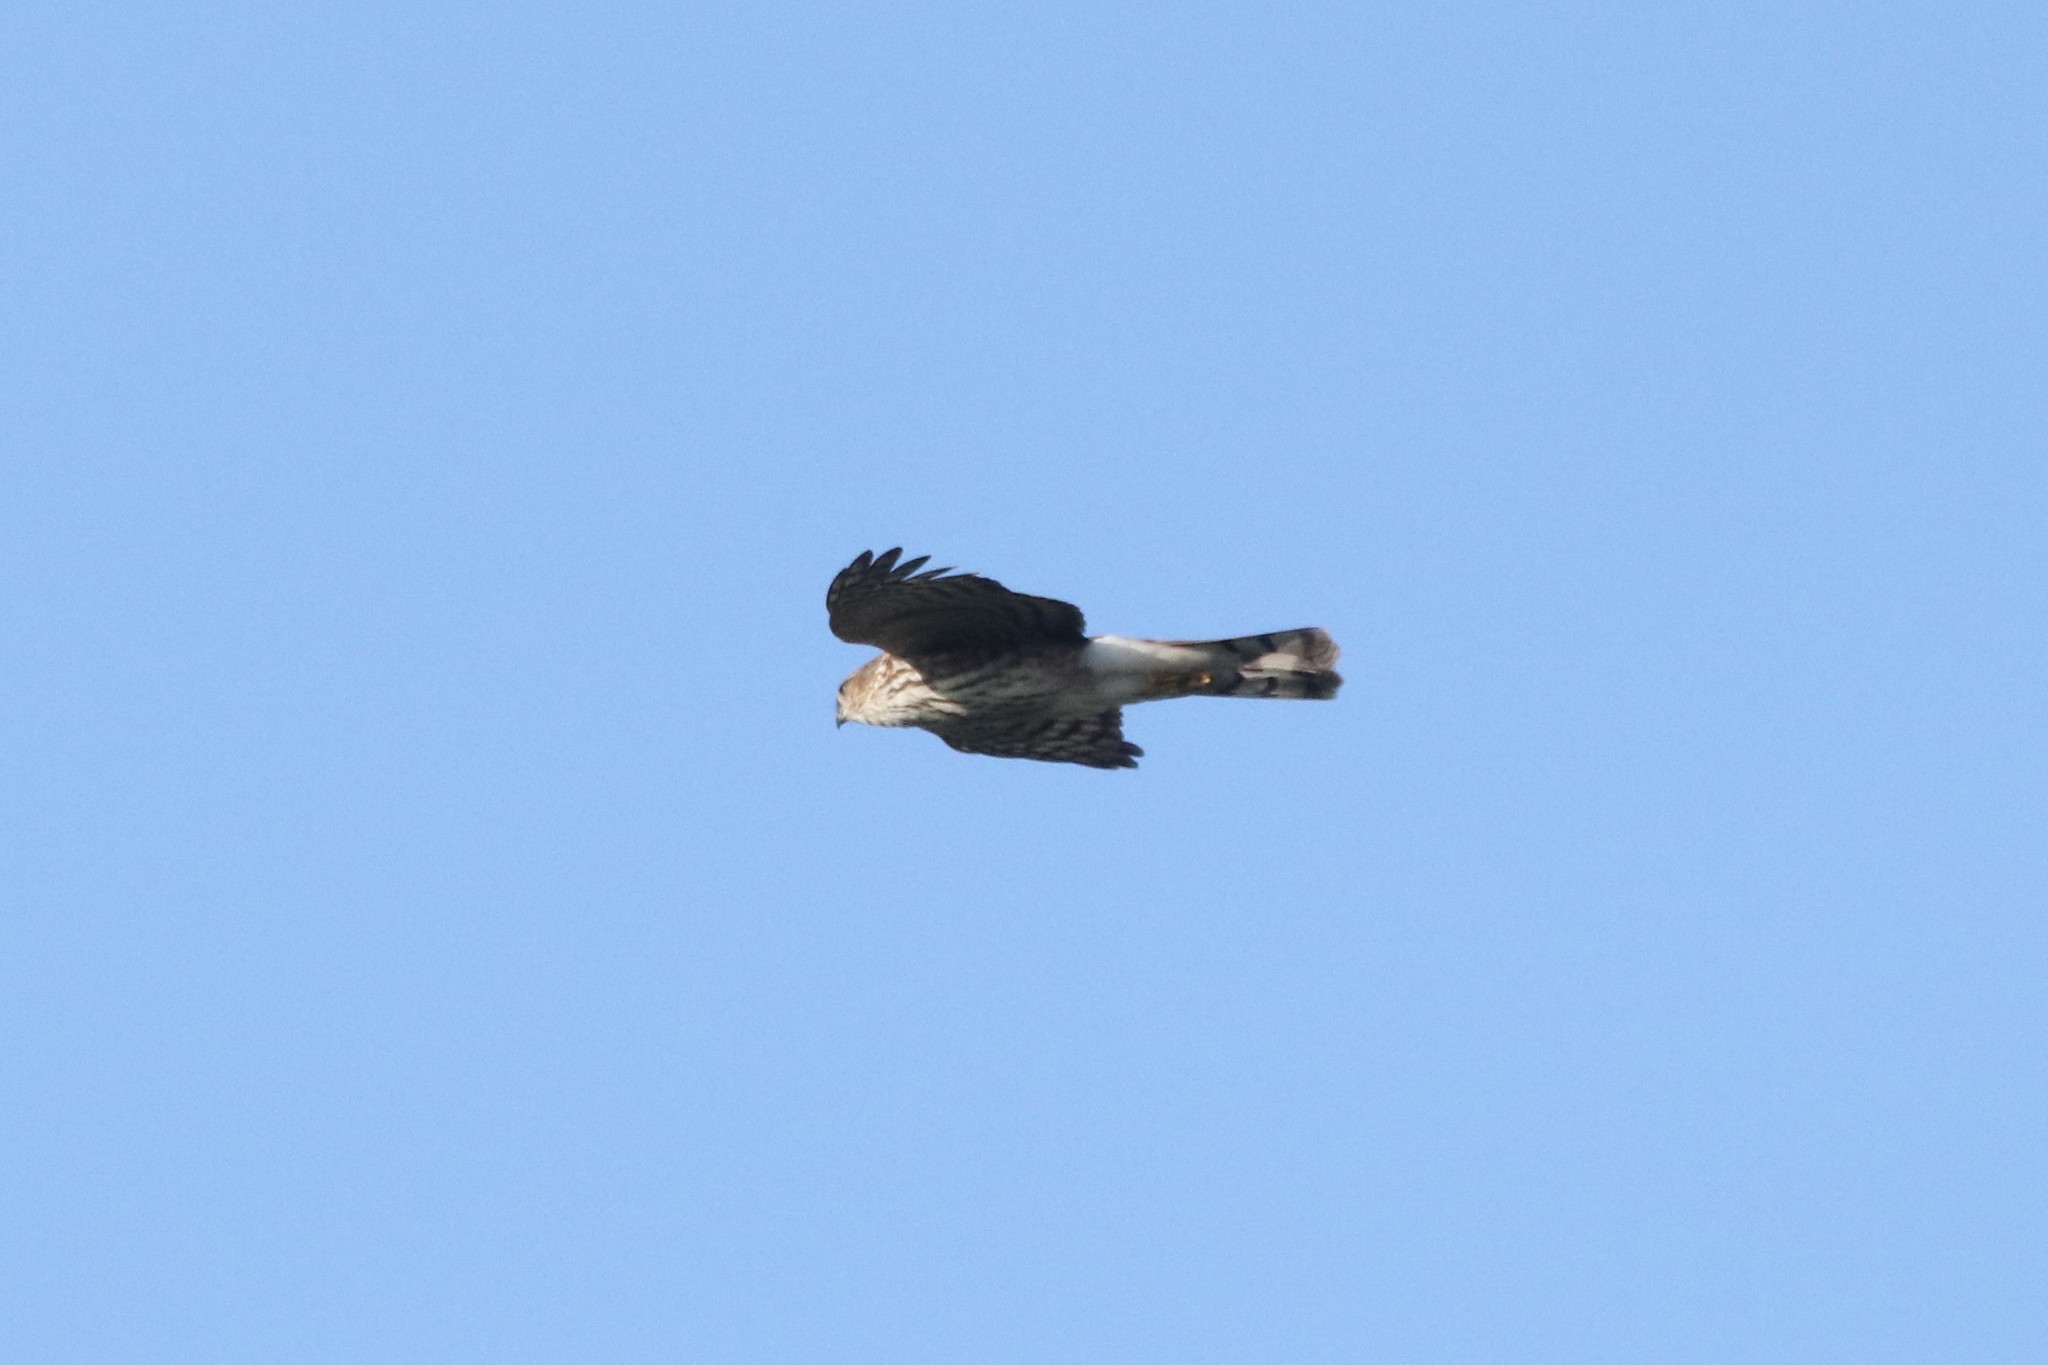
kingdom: Animalia
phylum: Chordata
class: Aves
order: Accipitriformes
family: Accipitridae
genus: Accipiter
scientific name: Accipiter striatus
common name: Sharp-shinned hawk
